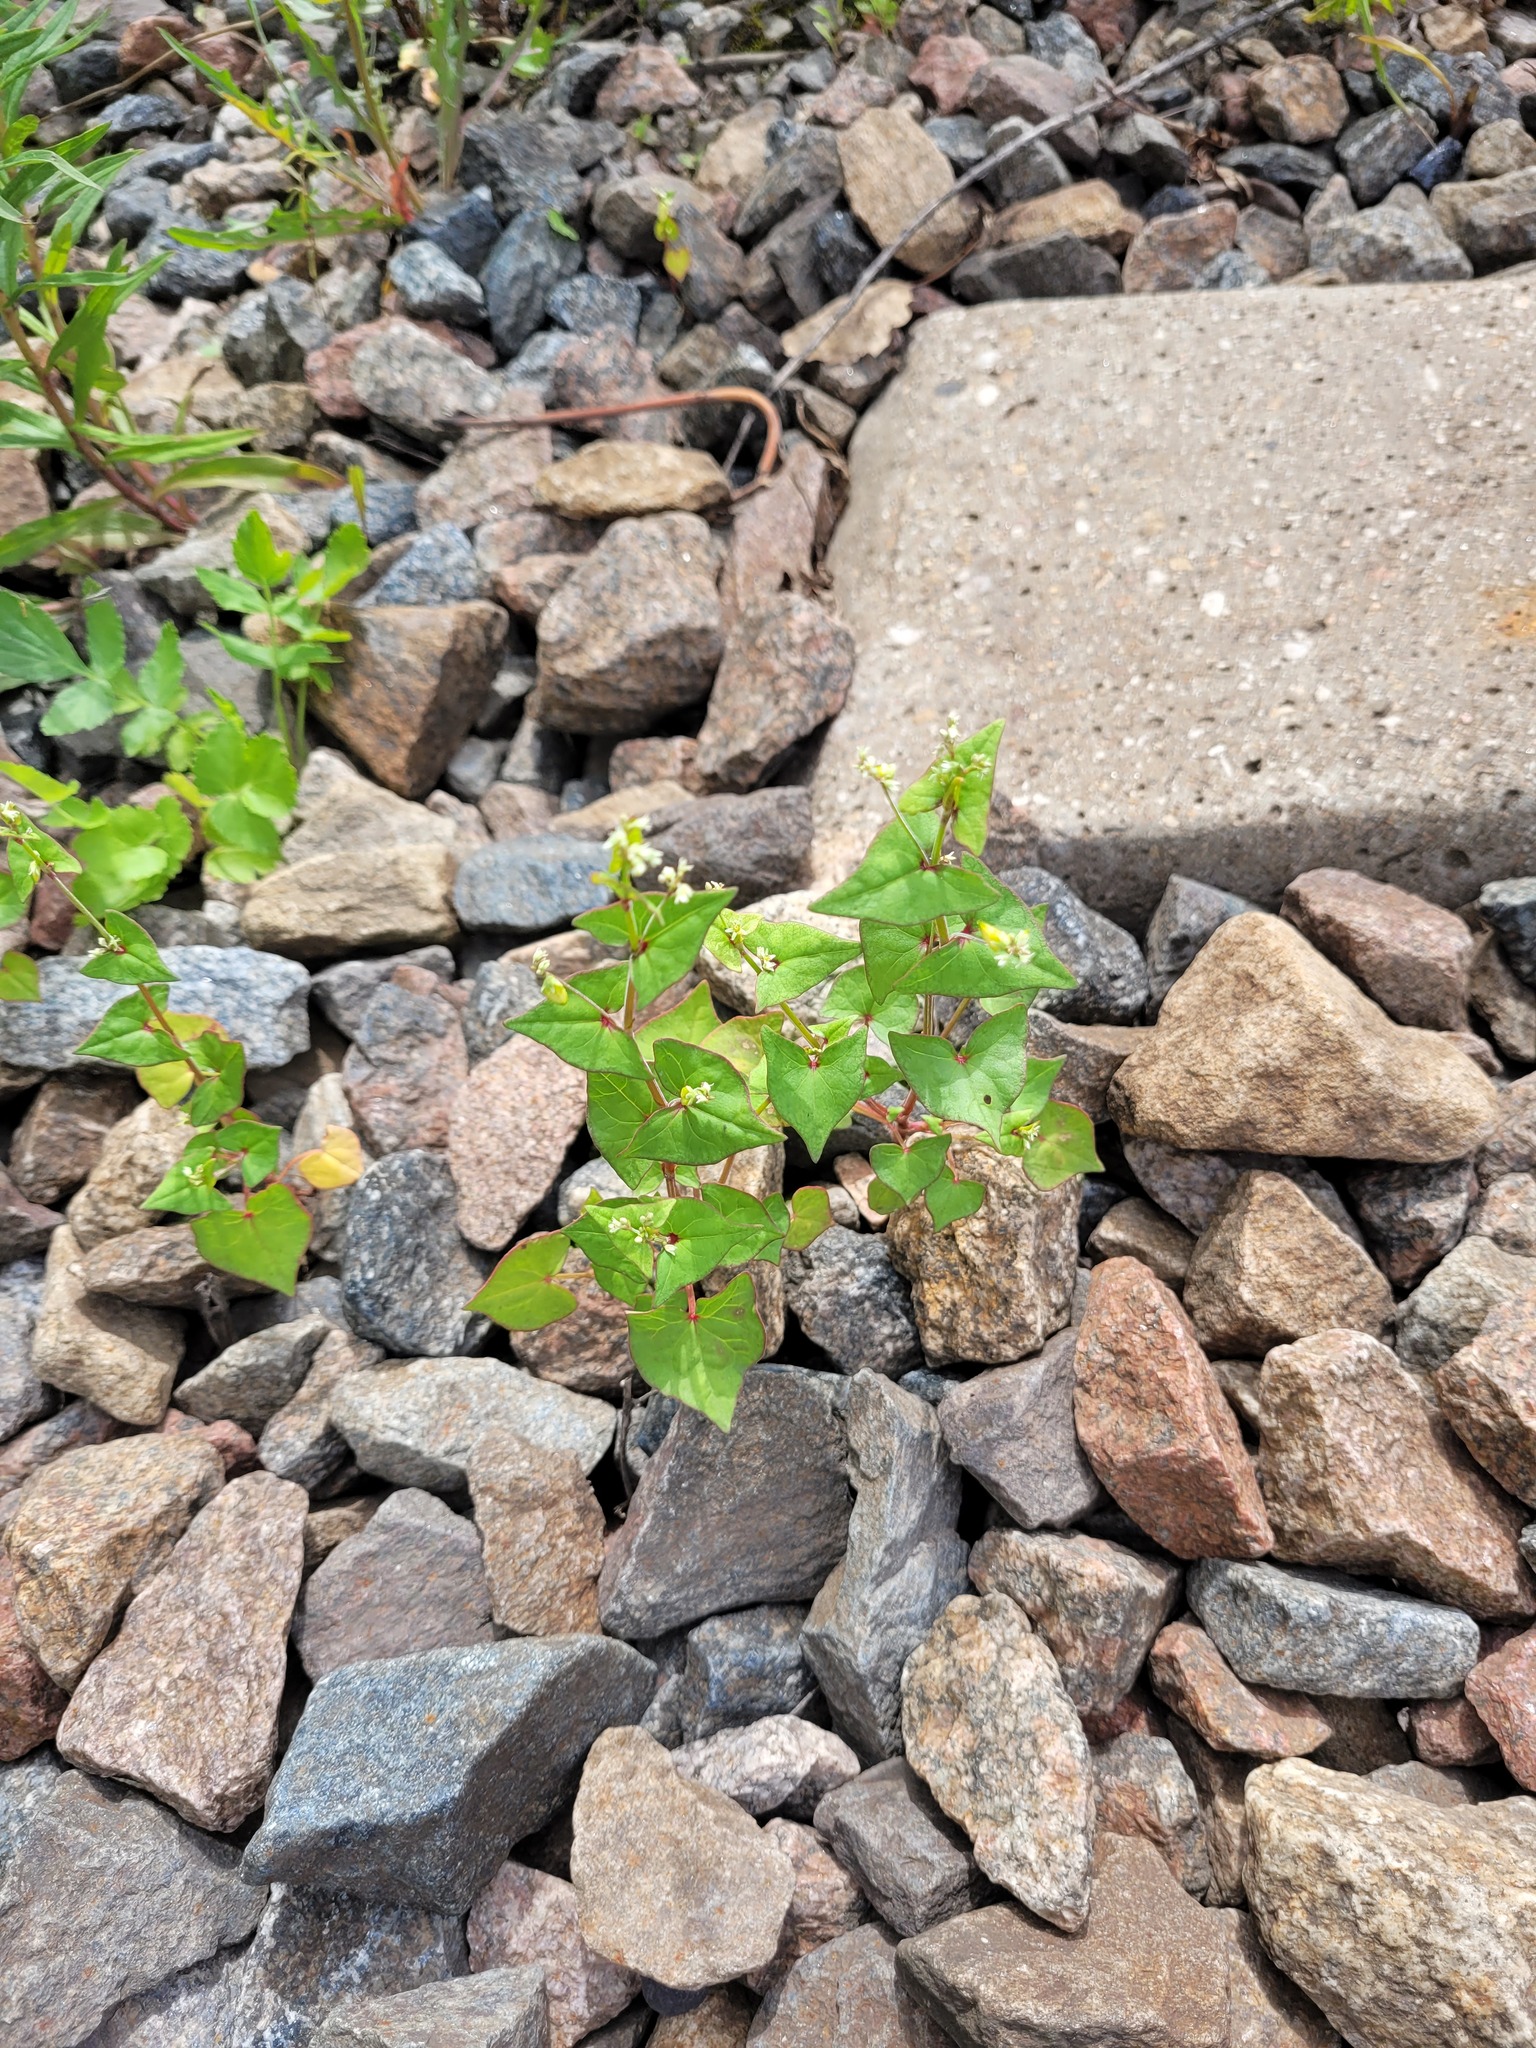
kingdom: Plantae
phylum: Tracheophyta
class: Magnoliopsida
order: Caryophyllales
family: Polygonaceae
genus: Fagopyrum
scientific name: Fagopyrum tataricum
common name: Green buckwheat
